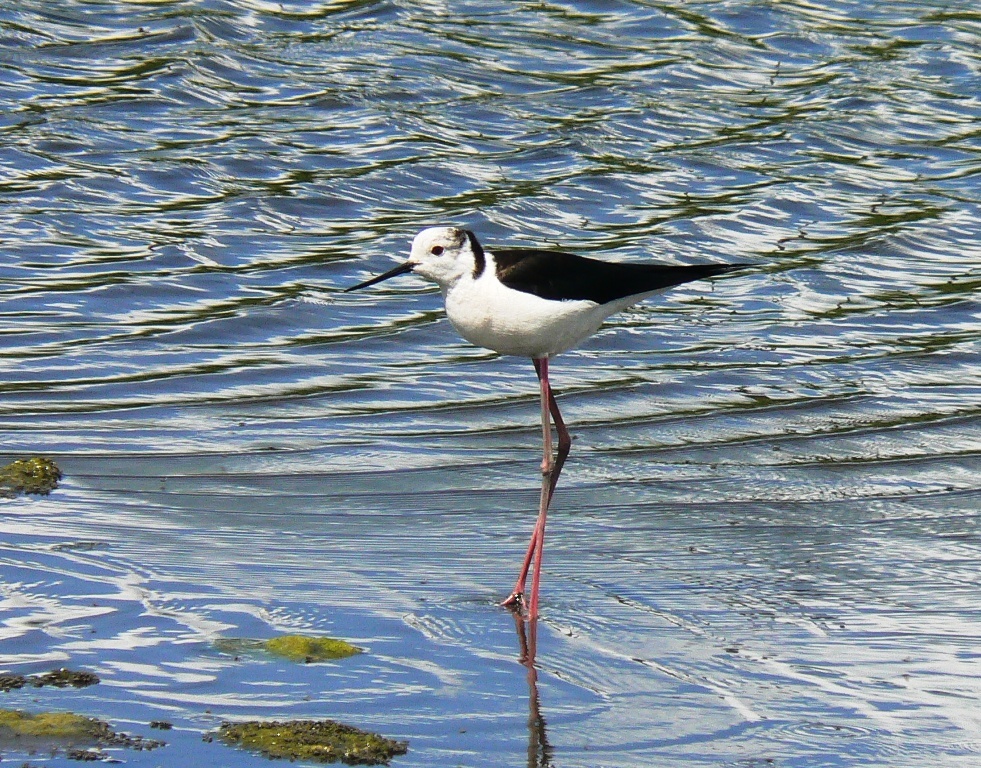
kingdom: Animalia
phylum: Chordata
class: Aves
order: Charadriiformes
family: Recurvirostridae
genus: Himantopus
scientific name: Himantopus himantopus
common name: Black-winged stilt
